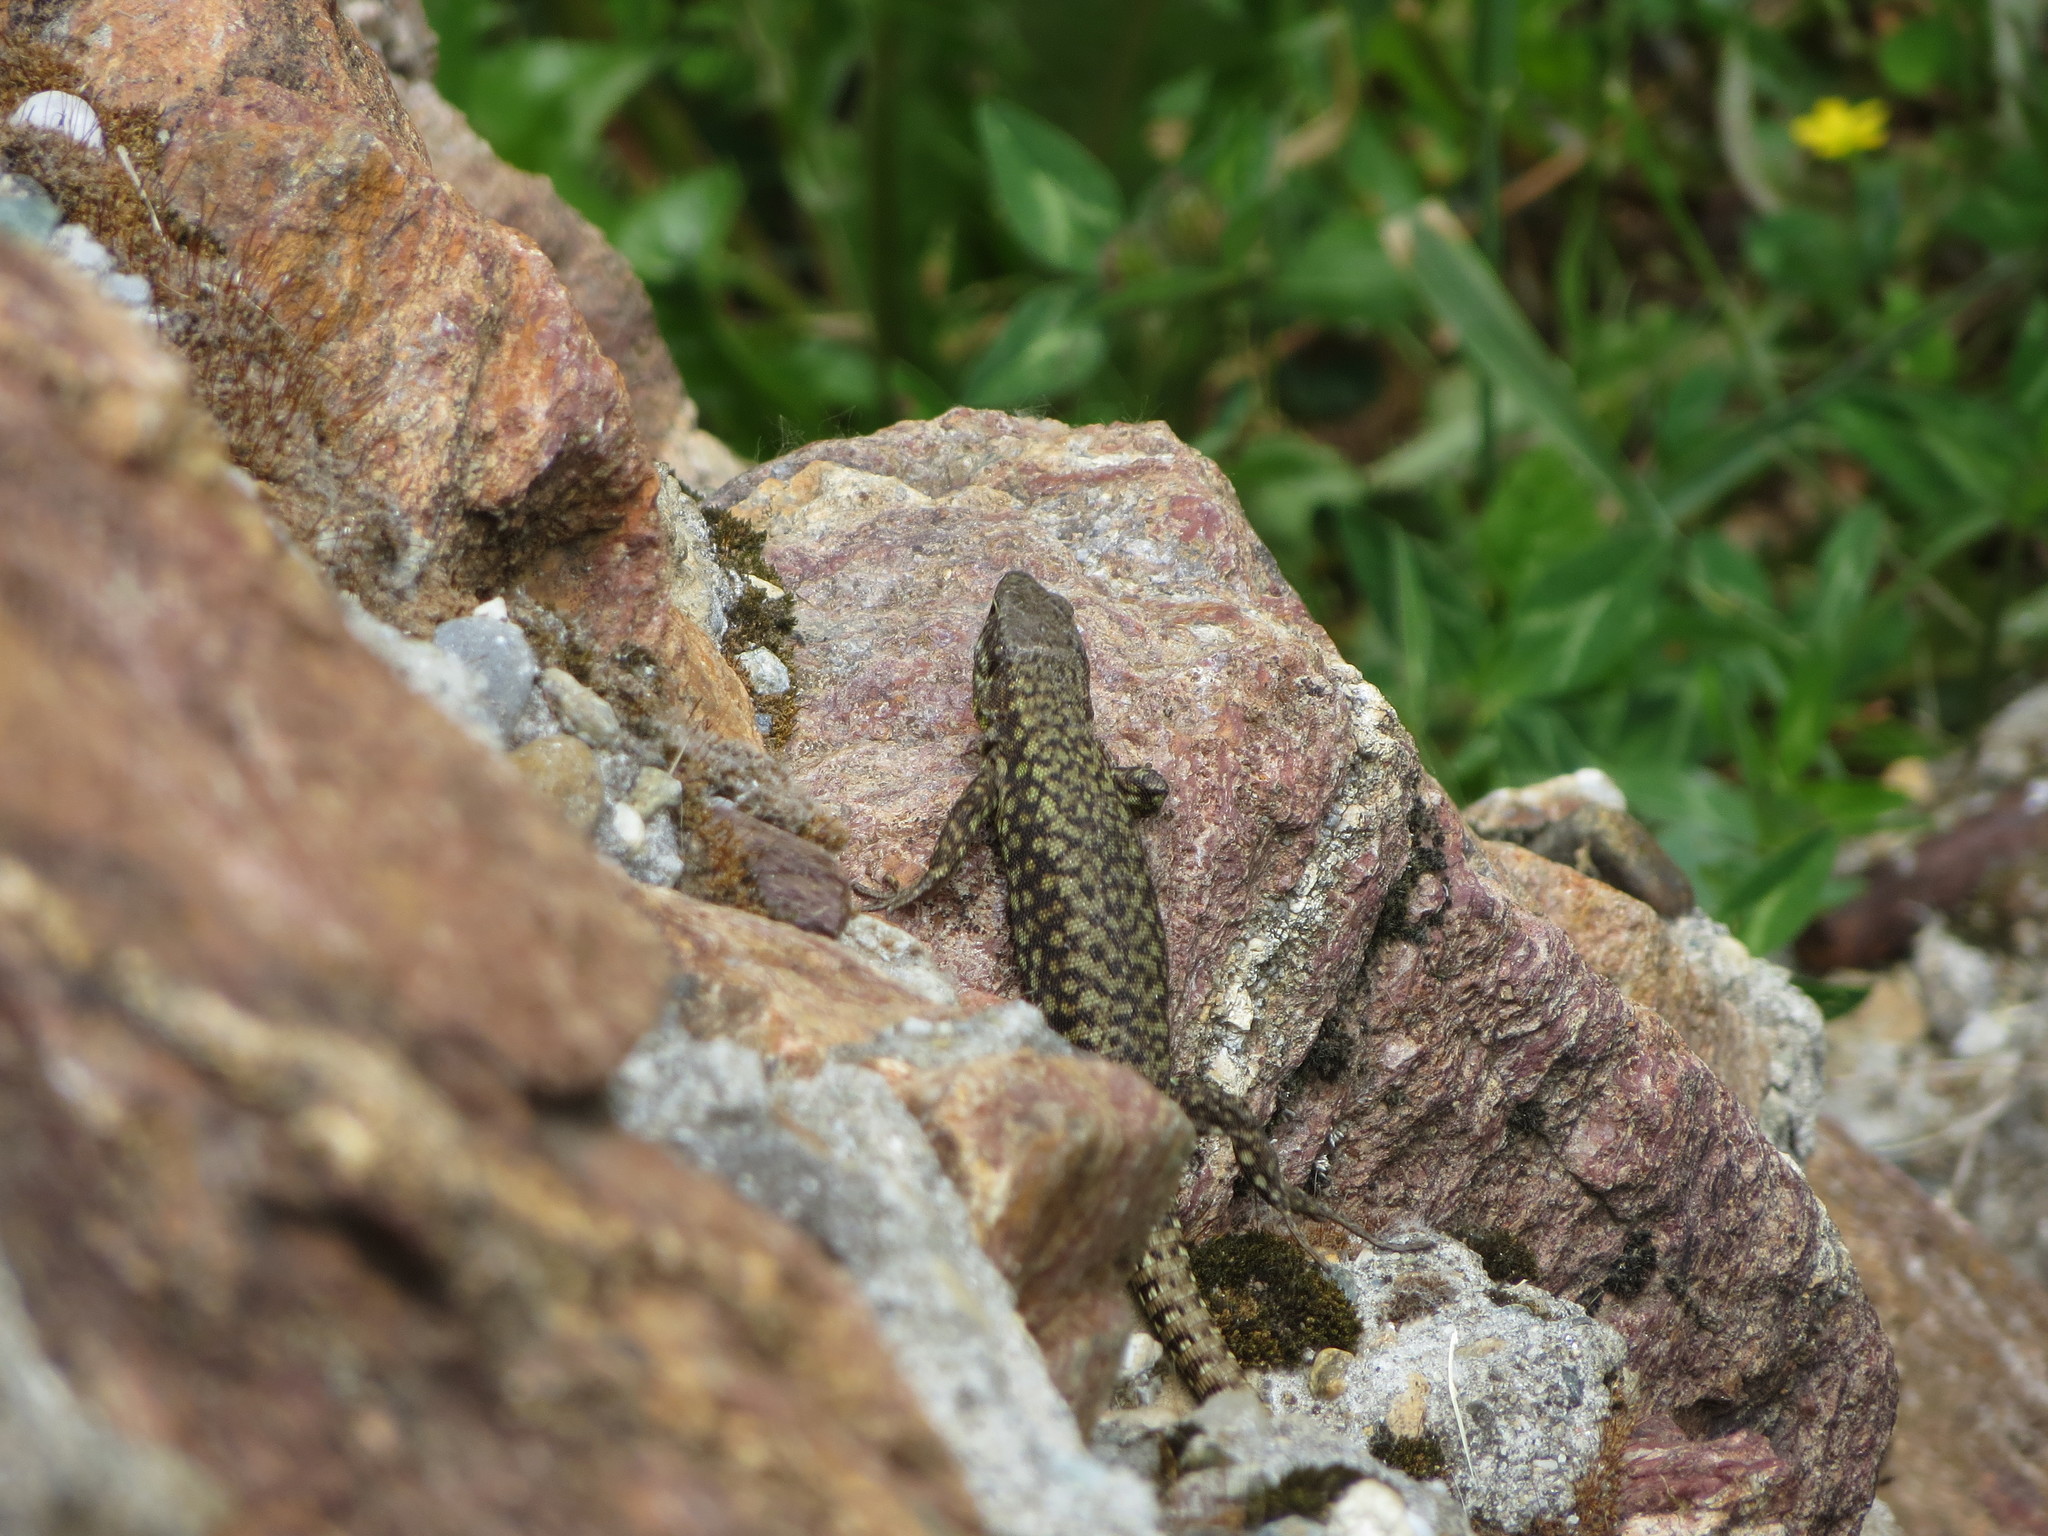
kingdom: Animalia
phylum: Chordata
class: Squamata
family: Lacertidae
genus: Podarcis
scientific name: Podarcis muralis
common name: Common wall lizard
